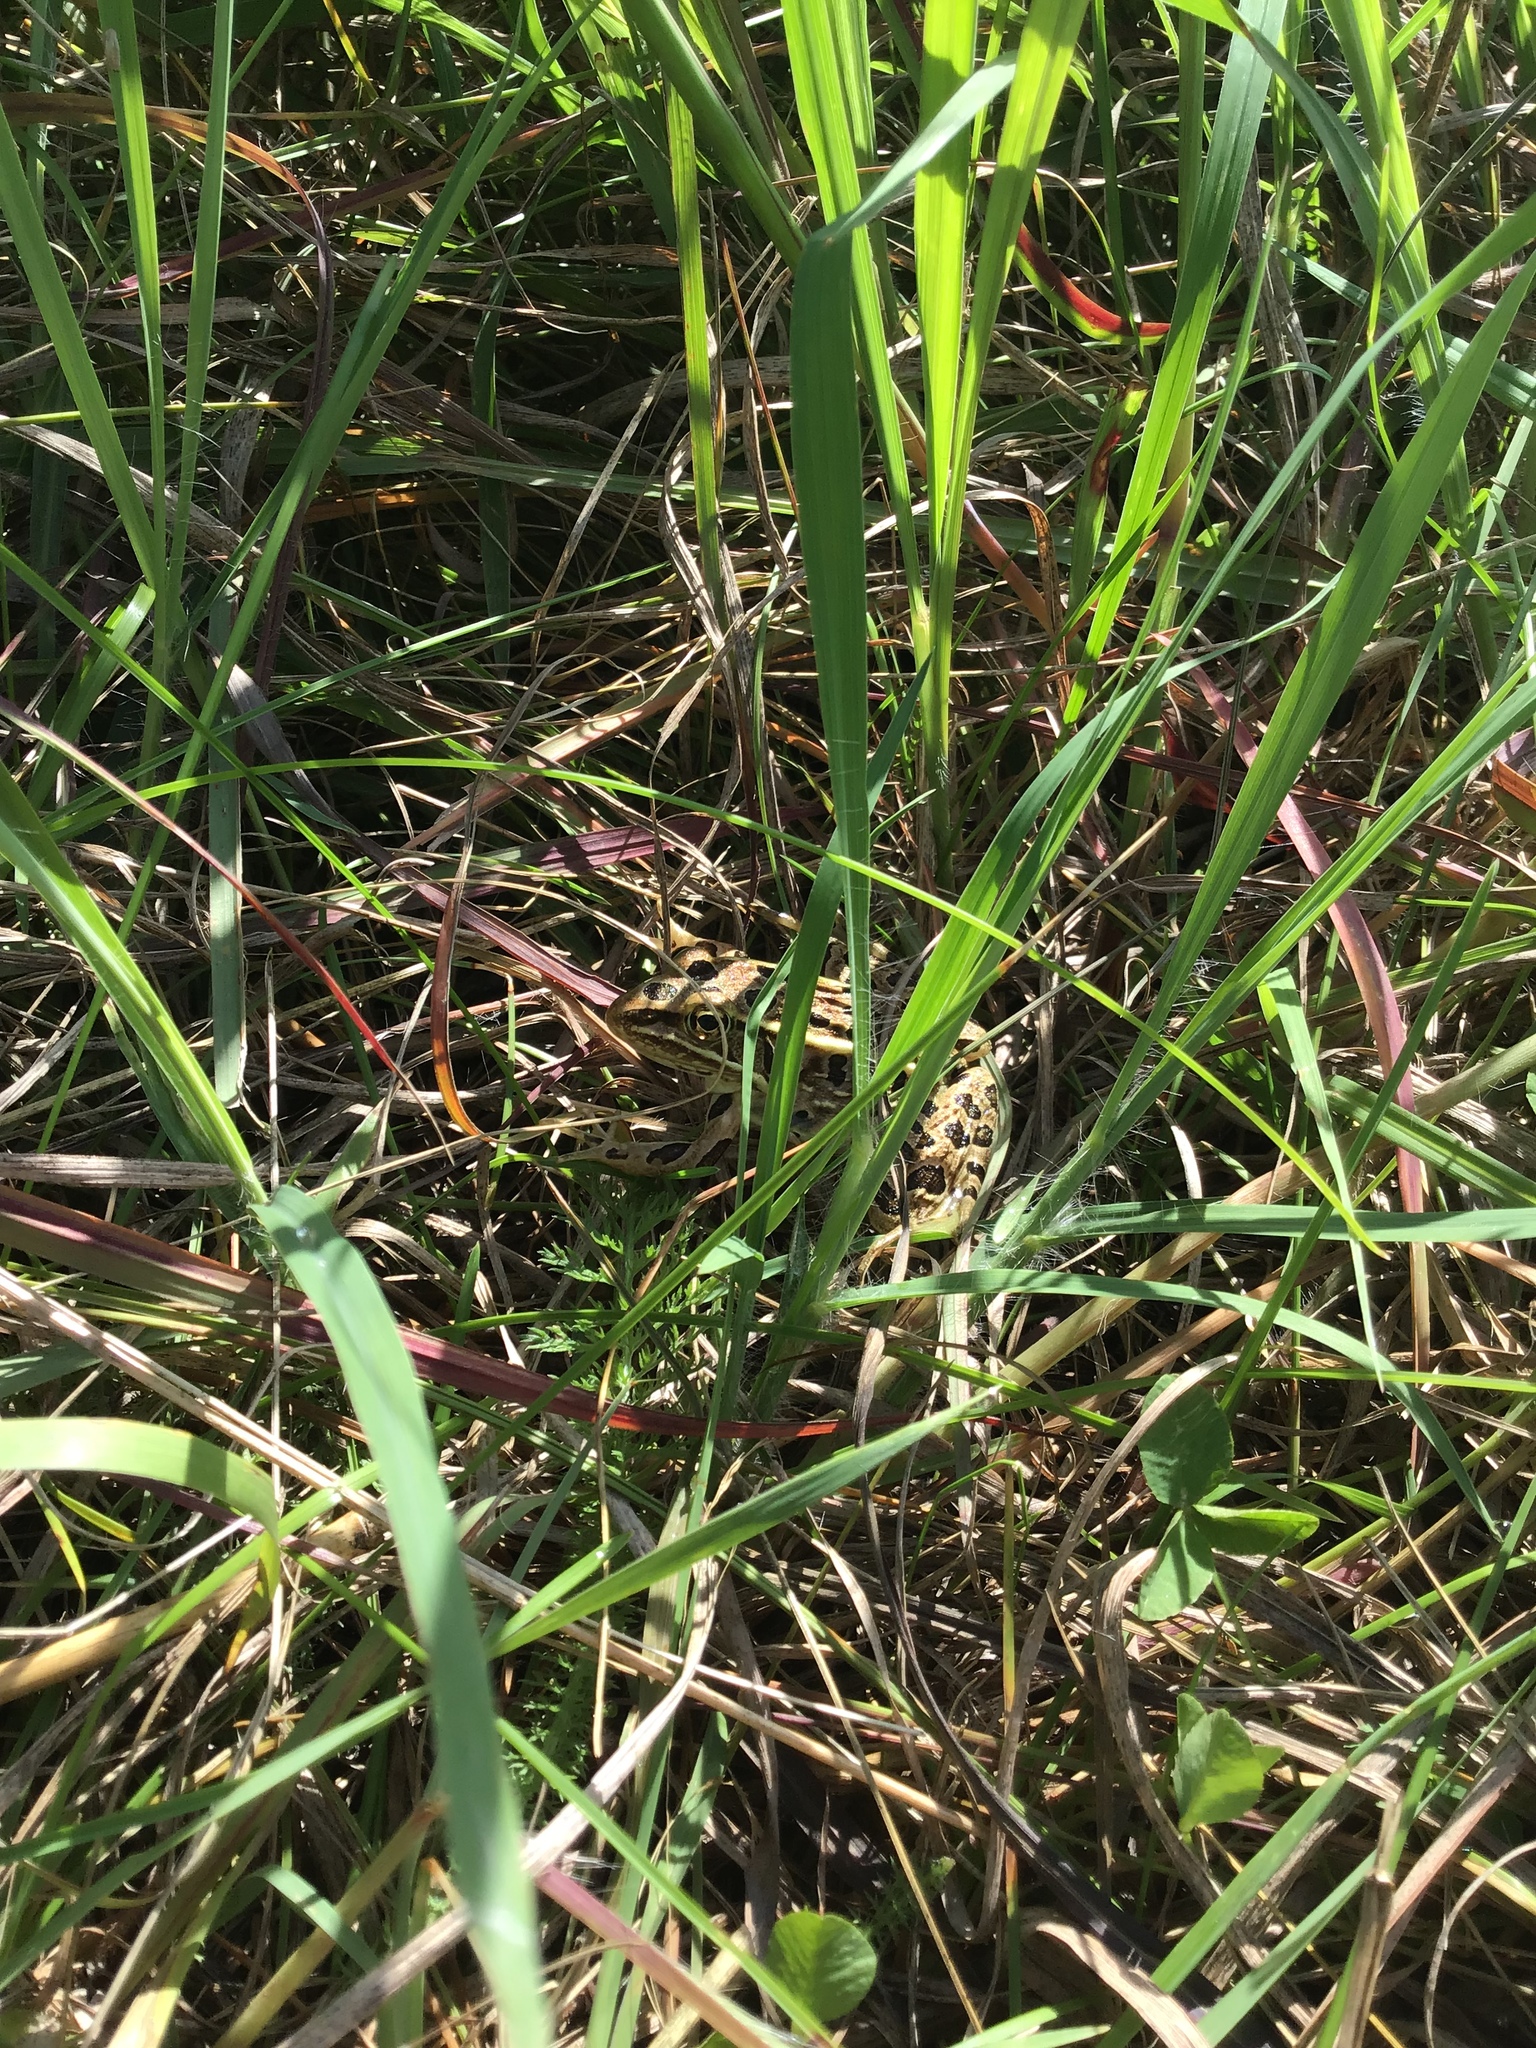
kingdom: Animalia
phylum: Chordata
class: Amphibia
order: Anura
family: Ranidae
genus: Lithobates
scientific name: Lithobates pipiens
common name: Northern leopard frog
